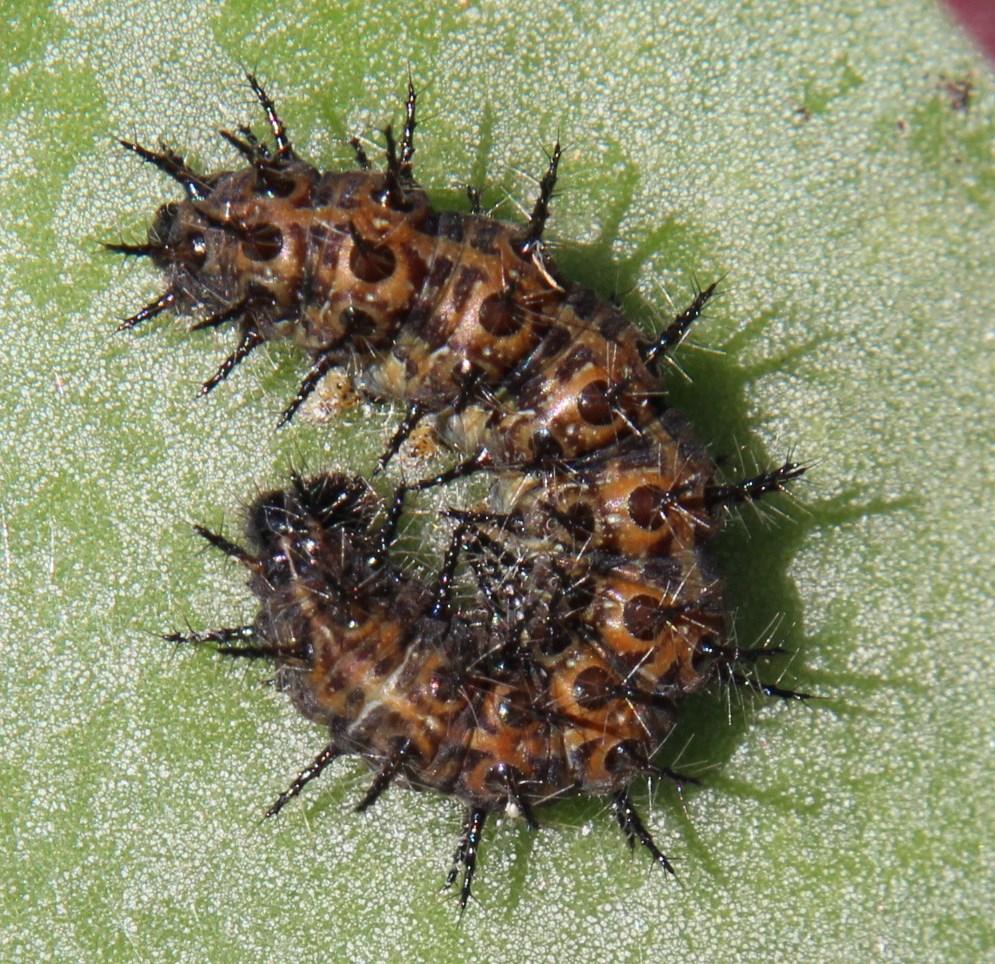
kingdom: Animalia
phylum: Arthropoda
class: Insecta
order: Lepidoptera
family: Nymphalidae
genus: Acraea
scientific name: Acraea horta
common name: Garden acraea
